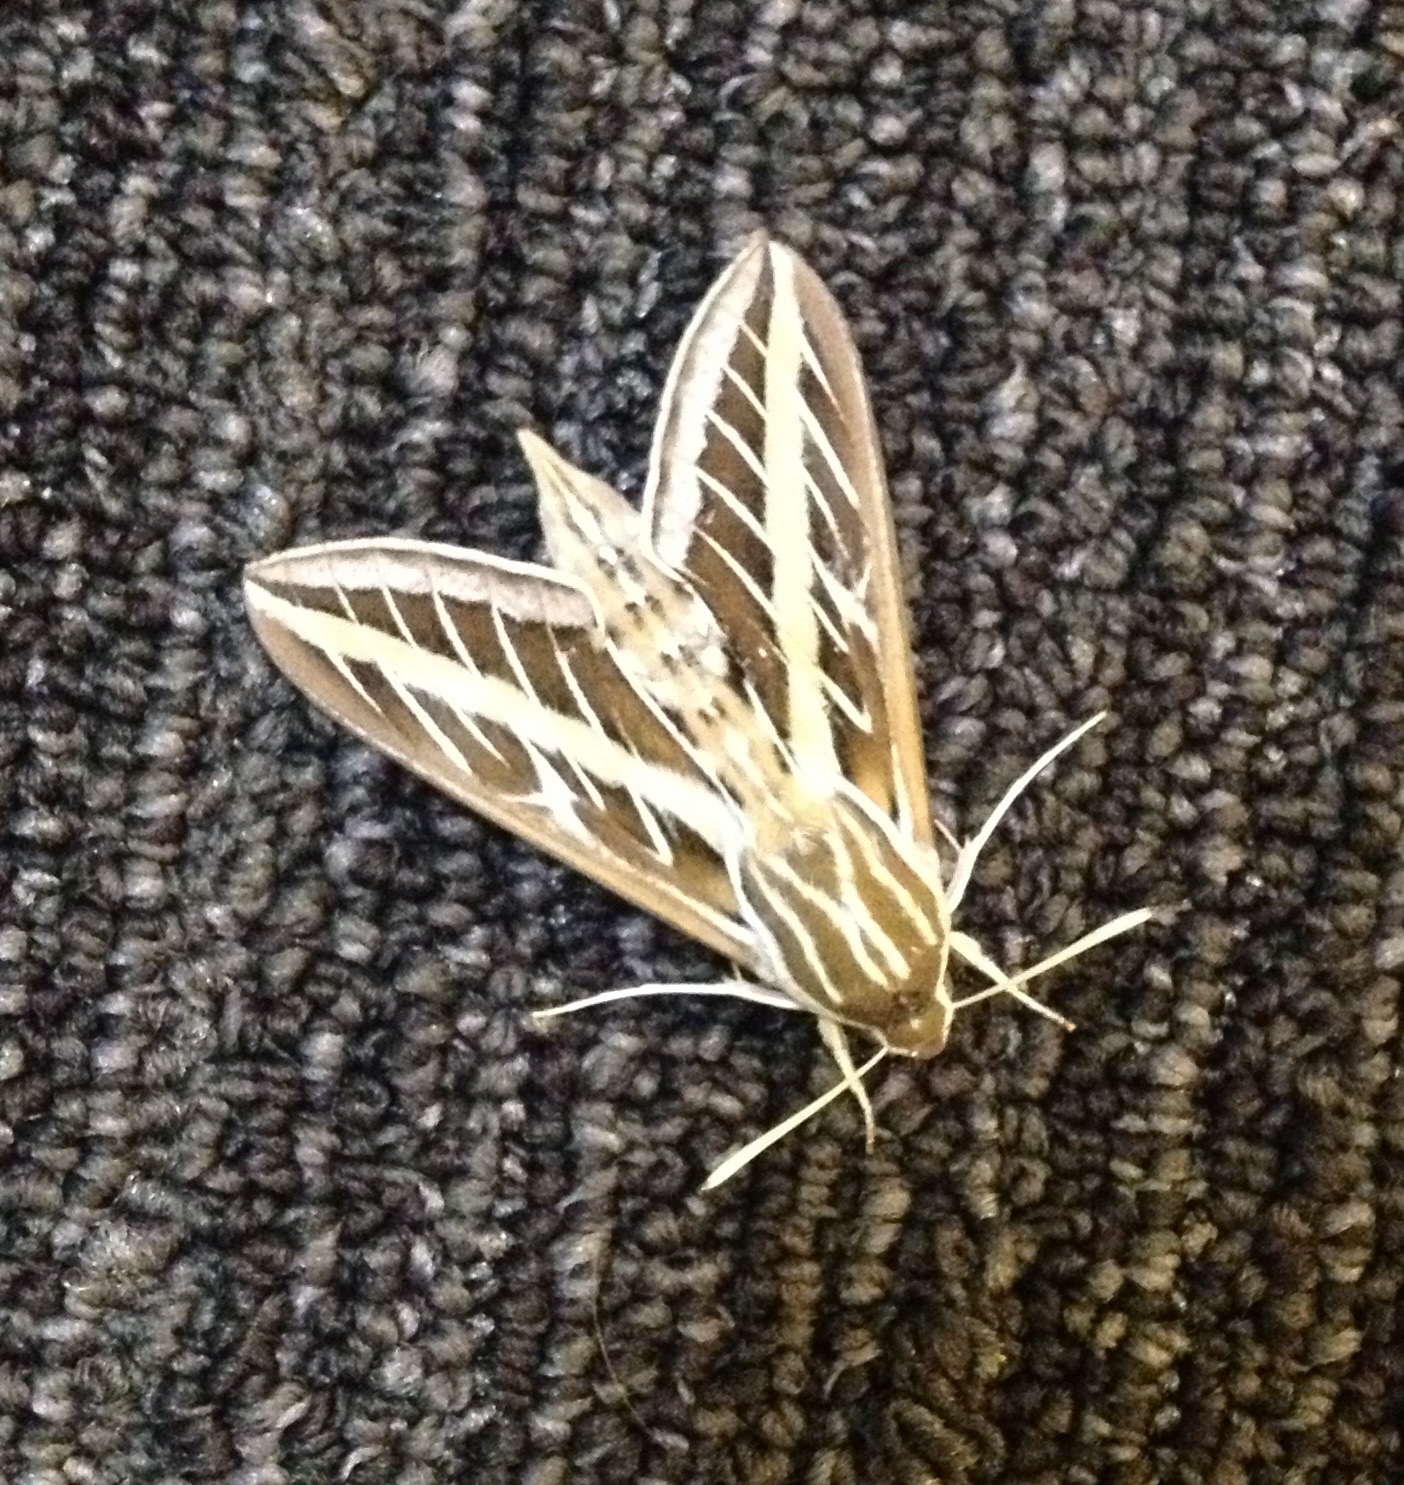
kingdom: Animalia
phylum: Arthropoda
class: Insecta
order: Lepidoptera
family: Sphingidae
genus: Hyles
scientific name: Hyles lineata
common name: White-lined sphinx
